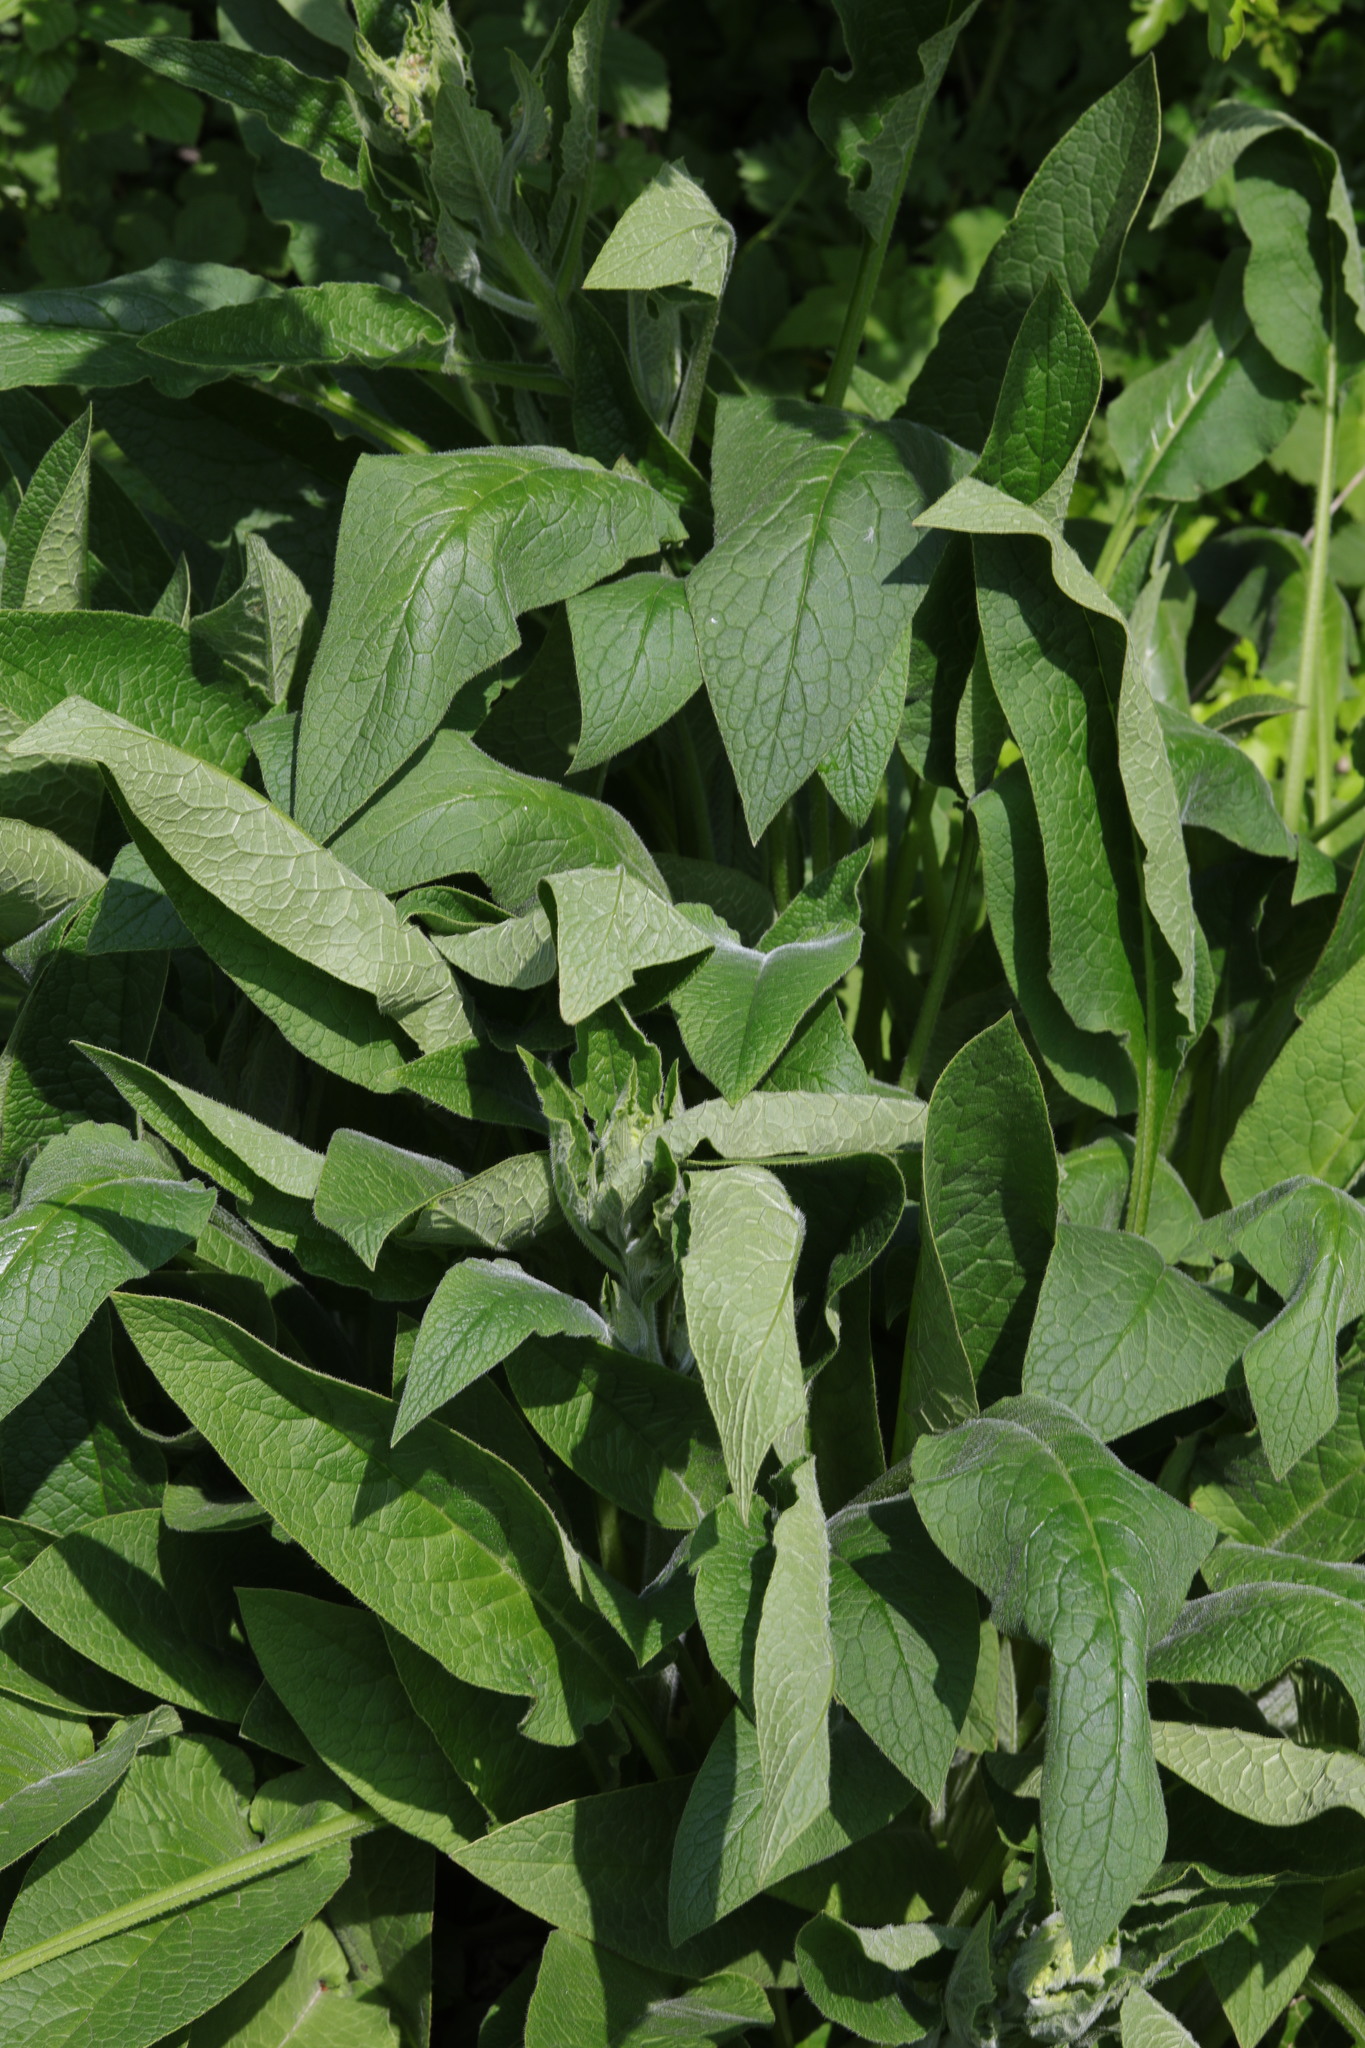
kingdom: Plantae
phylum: Tracheophyta
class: Magnoliopsida
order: Boraginales
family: Boraginaceae
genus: Symphytum
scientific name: Symphytum uplandicum
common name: Russian comfrey
